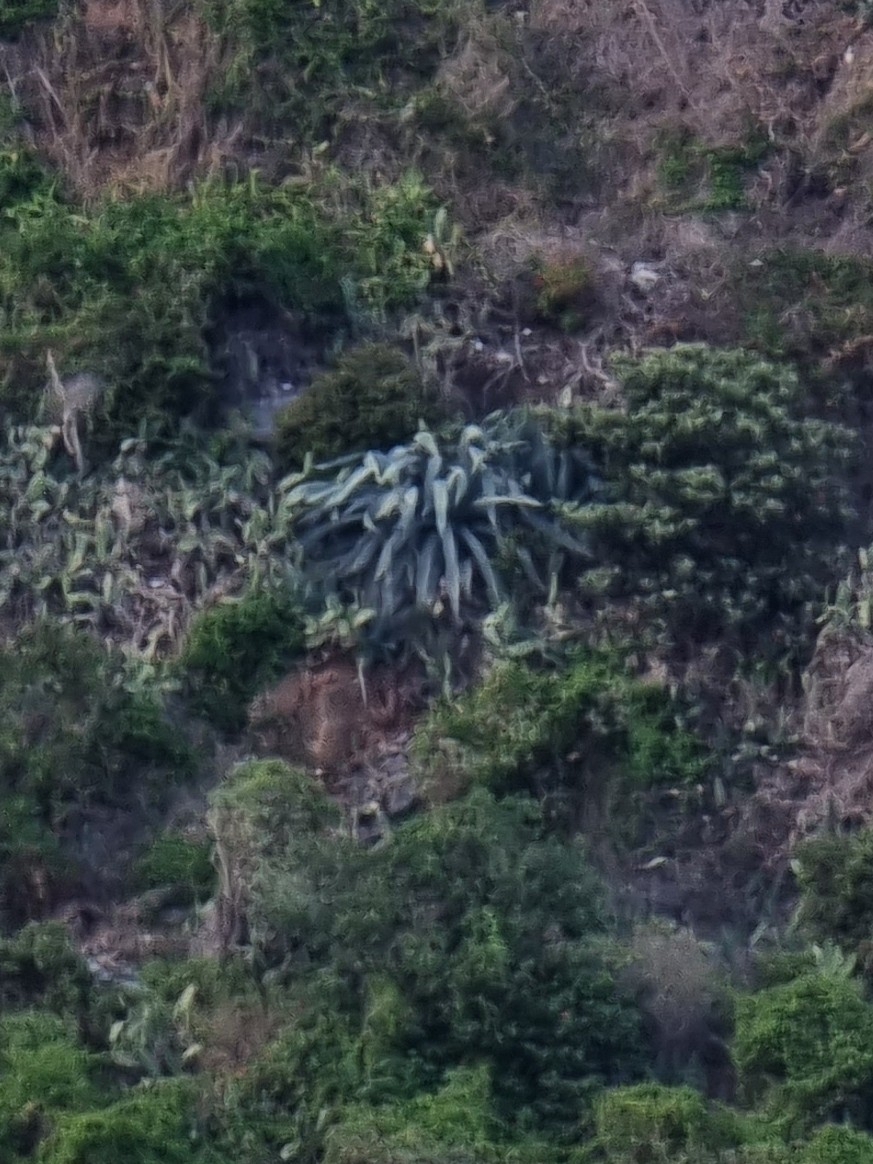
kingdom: Plantae
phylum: Tracheophyta
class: Liliopsida
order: Asparagales
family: Asparagaceae
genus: Agave
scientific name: Agave americana
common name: Centuryplant
